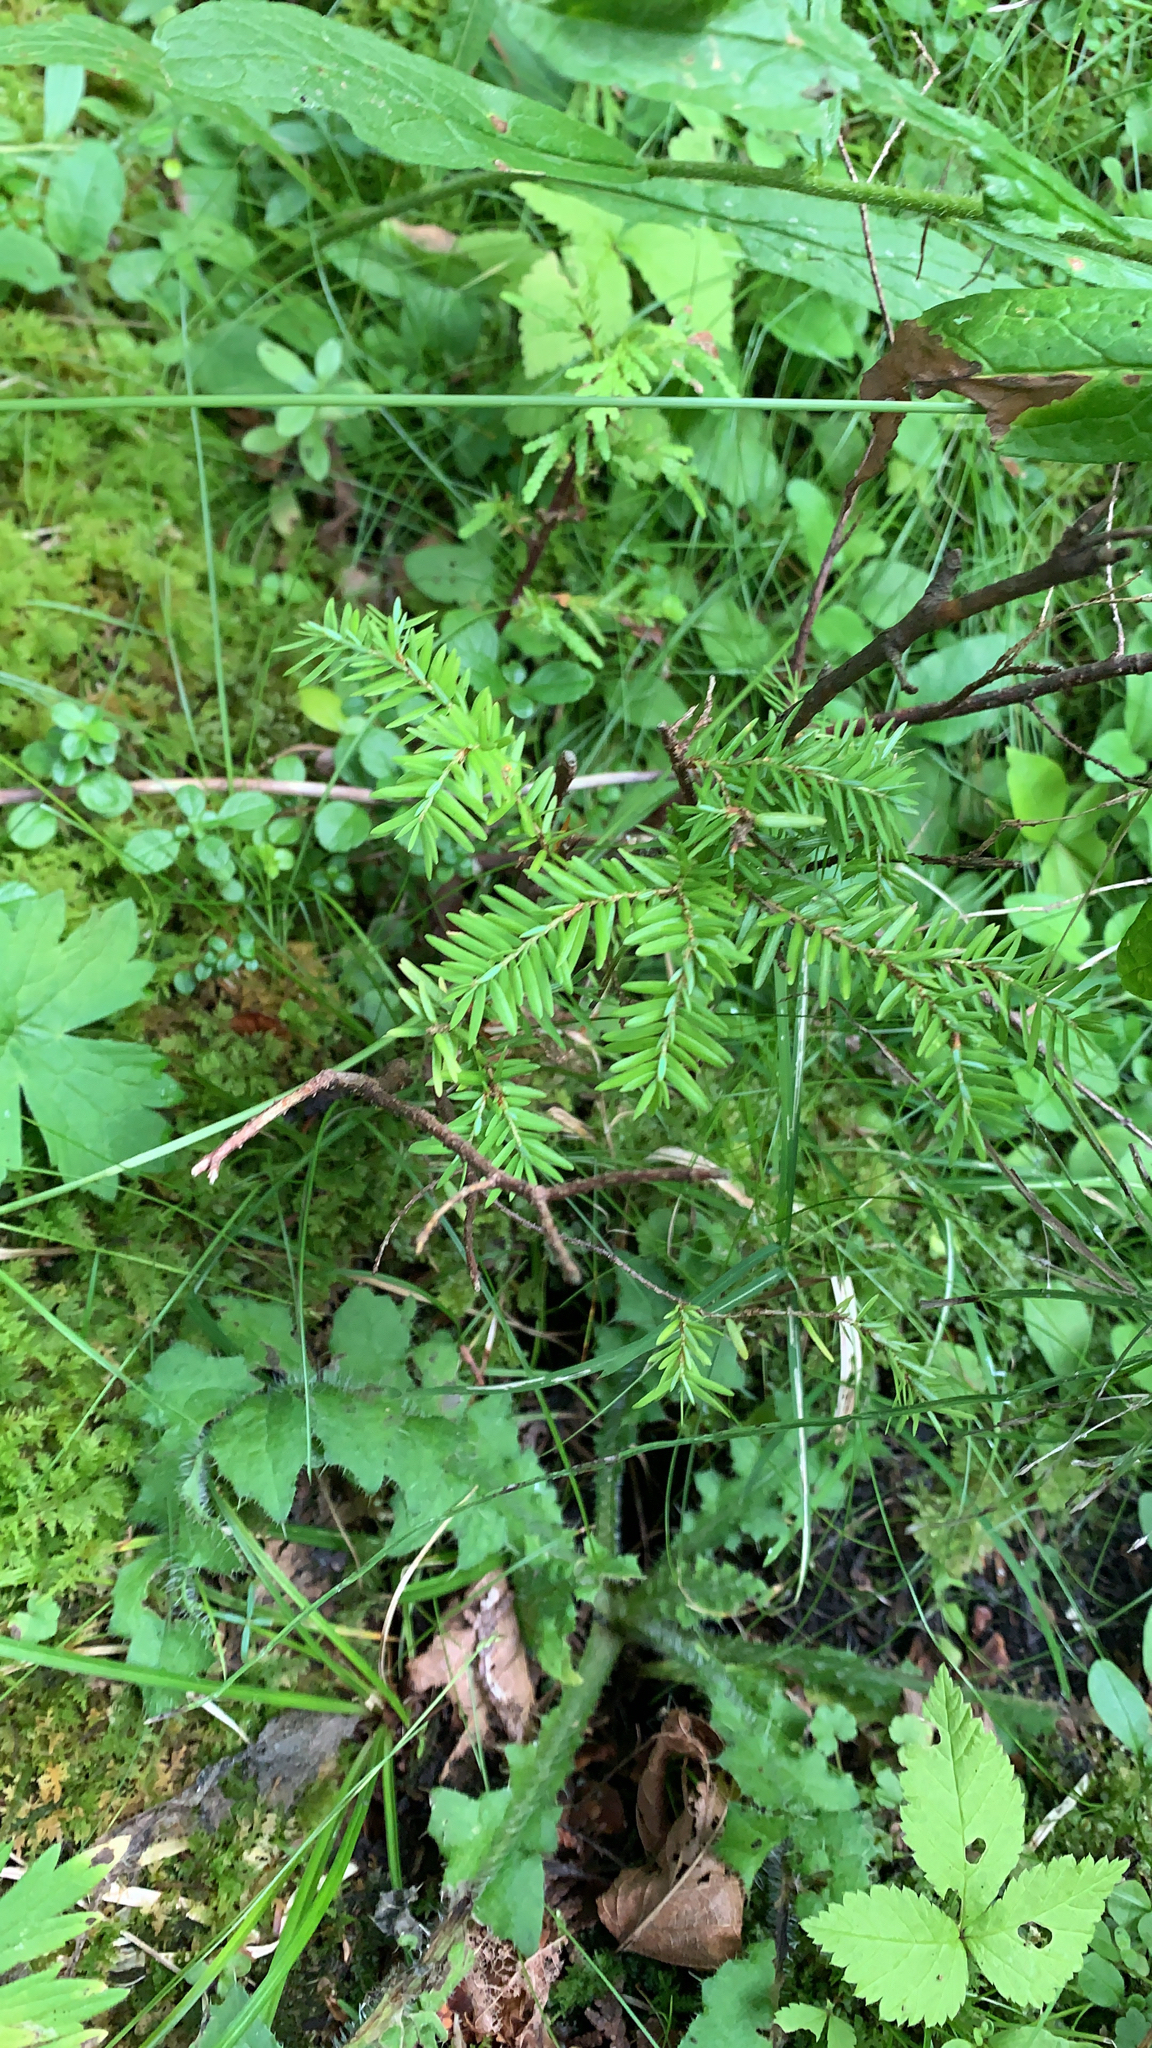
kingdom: Plantae
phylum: Tracheophyta
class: Pinopsida
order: Pinales
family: Pinaceae
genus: Tsuga
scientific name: Tsuga canadensis
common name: Eastern hemlock
